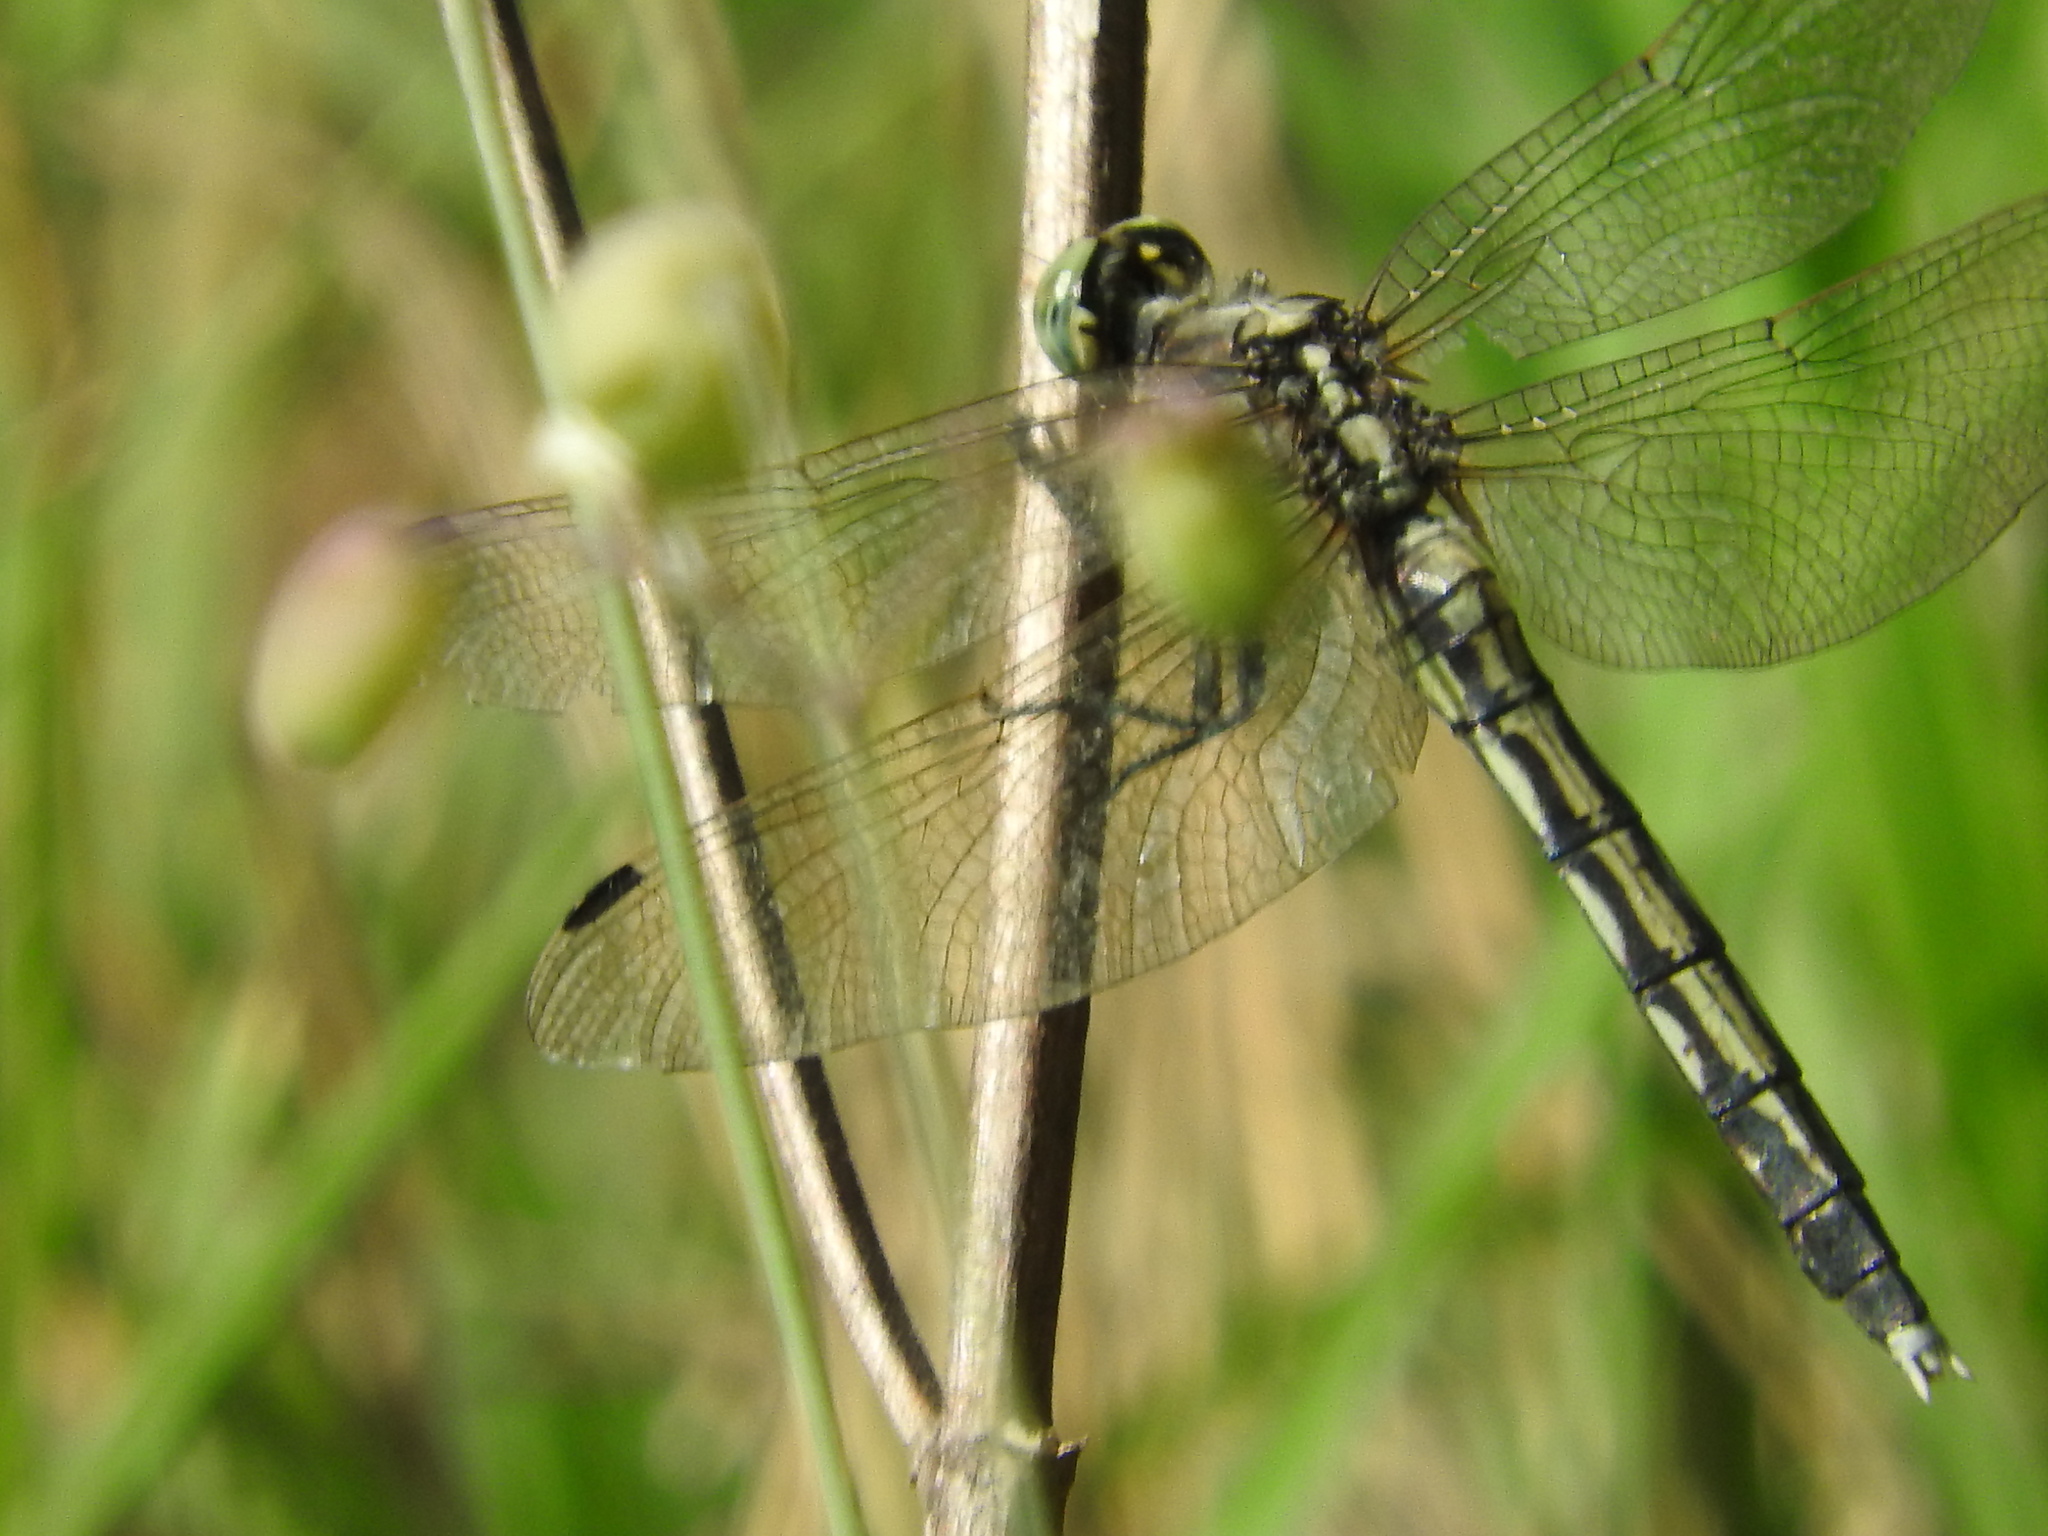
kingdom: Animalia
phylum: Arthropoda
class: Insecta
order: Odonata
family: Libellulidae
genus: Orthetrum
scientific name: Orthetrum albistylum
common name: White-tailed skimmer
